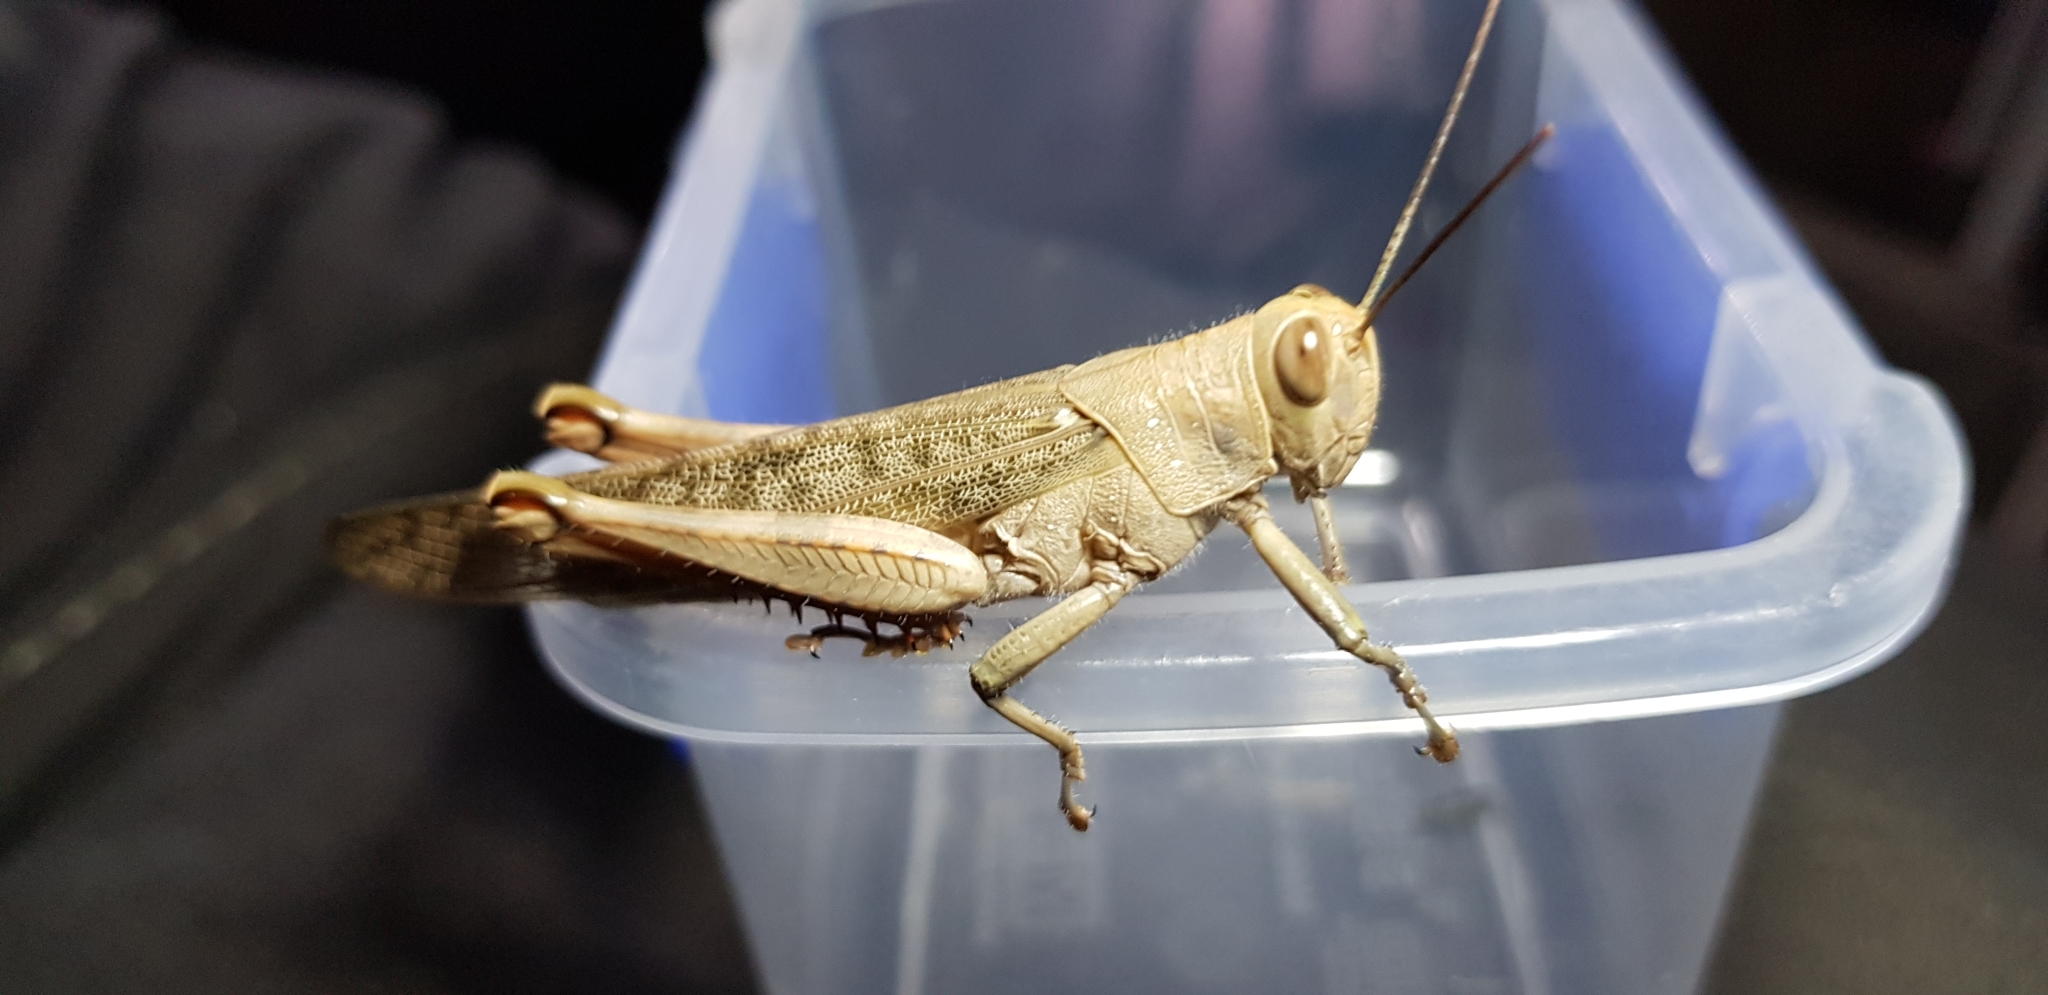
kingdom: Animalia
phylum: Arthropoda
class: Insecta
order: Orthoptera
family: Acrididae
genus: Valanga
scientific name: Valanga irregularis
